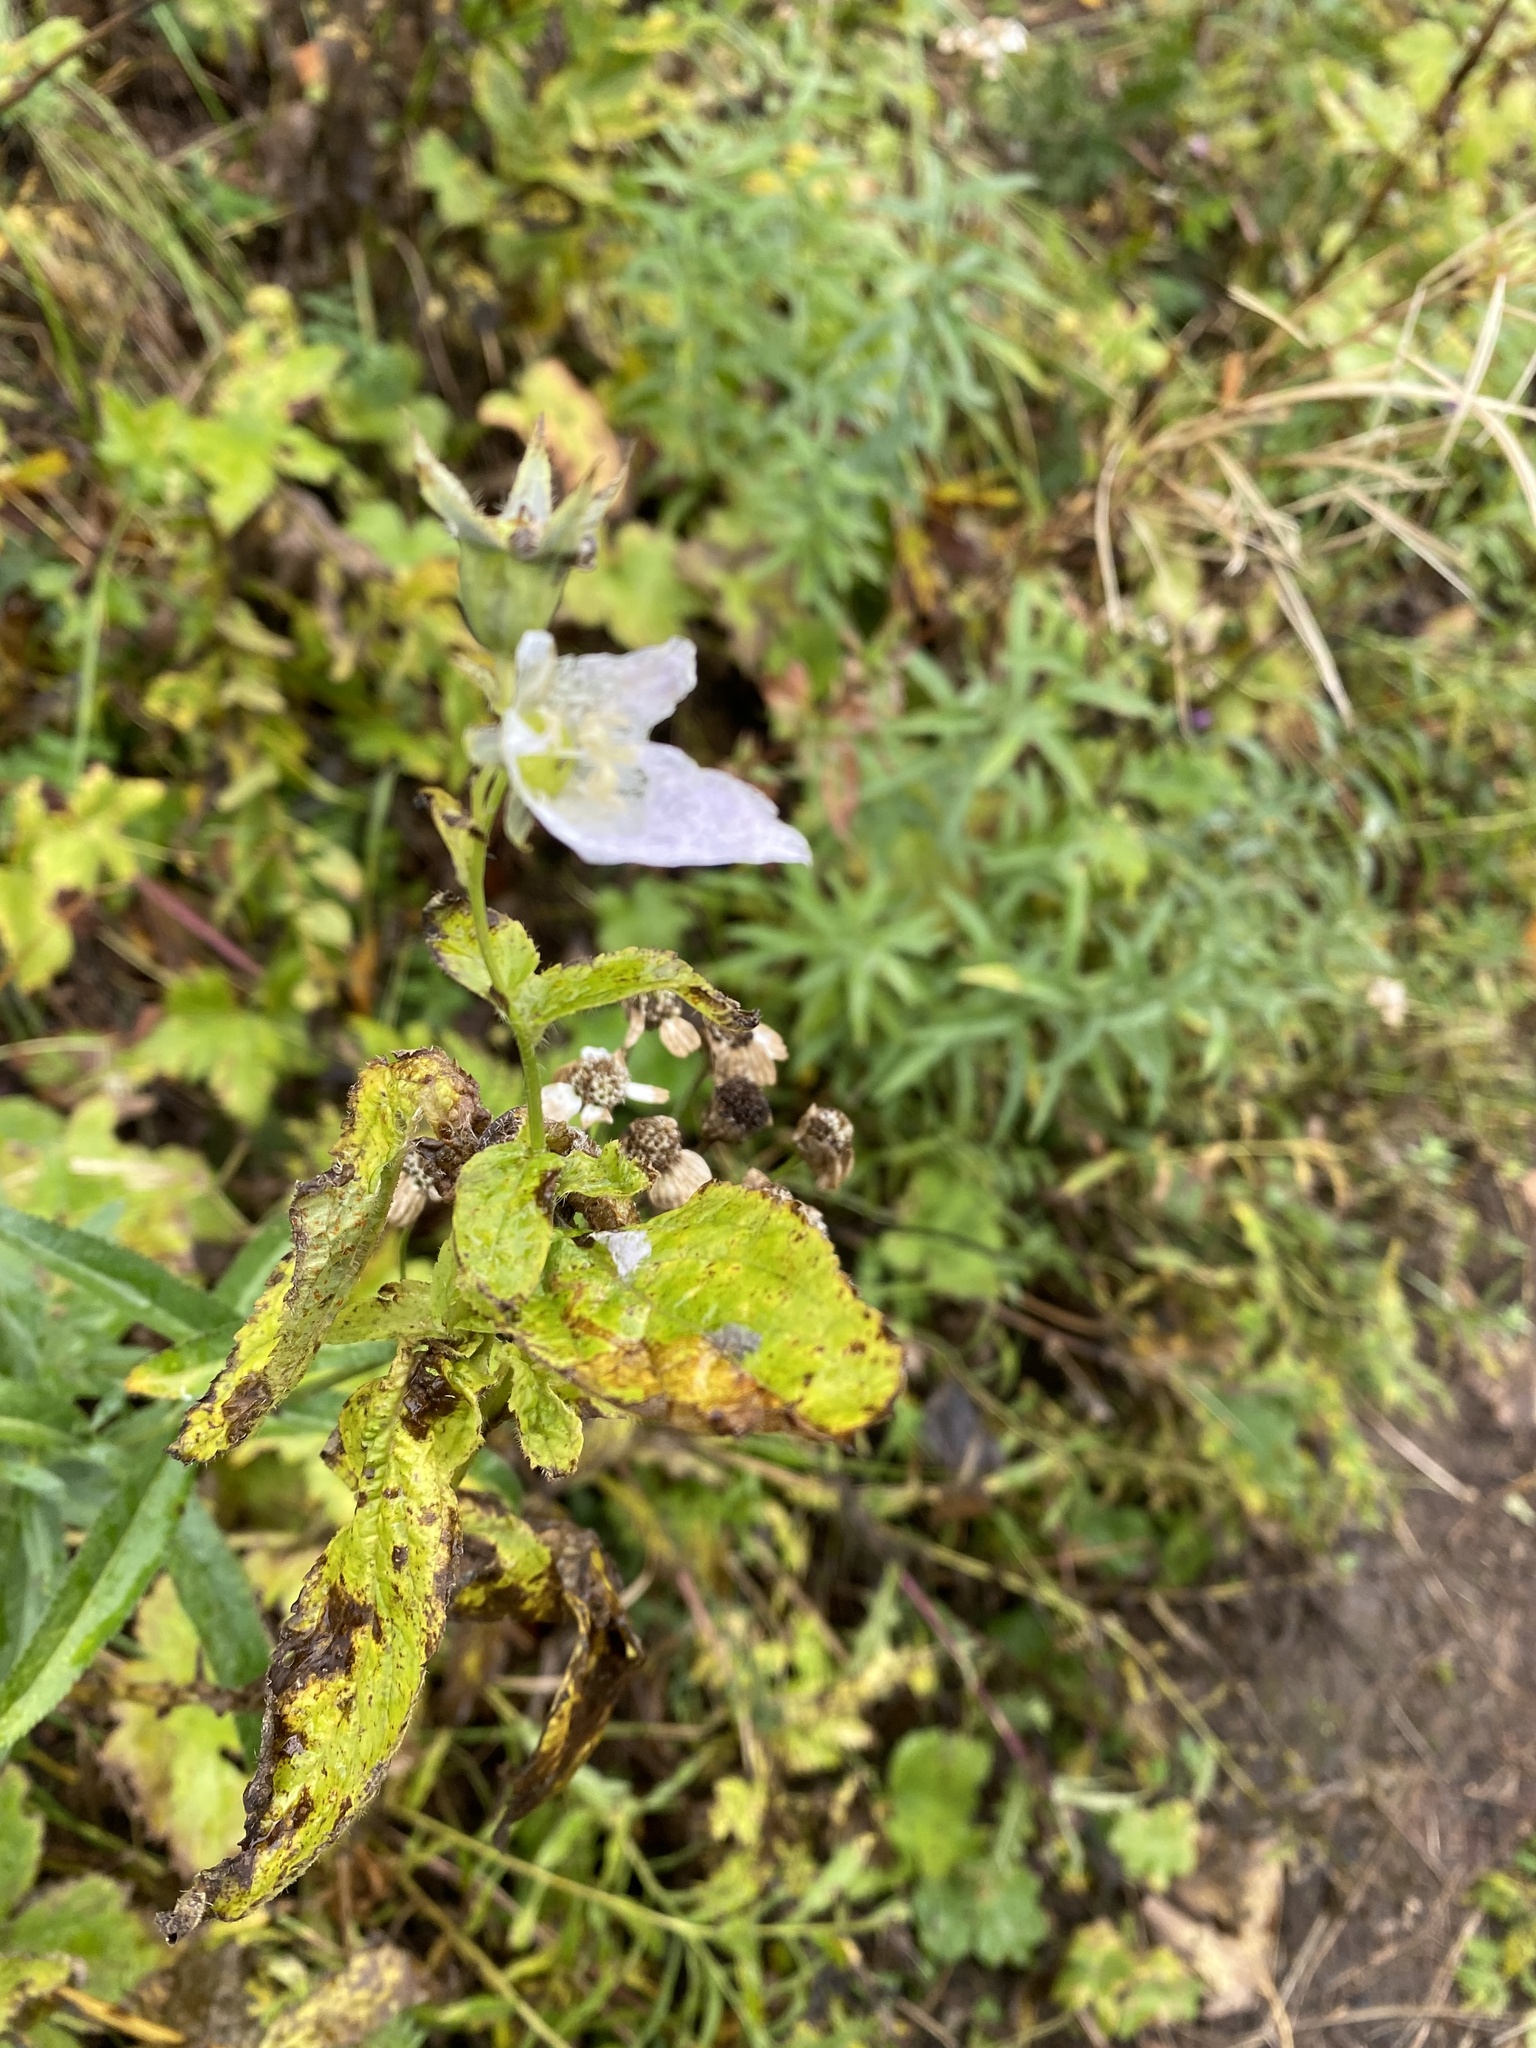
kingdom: Plantae
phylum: Tracheophyta
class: Magnoliopsida
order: Asterales
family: Campanulaceae
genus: Campanula
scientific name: Campanula lactiflora
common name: Milky bellflower
